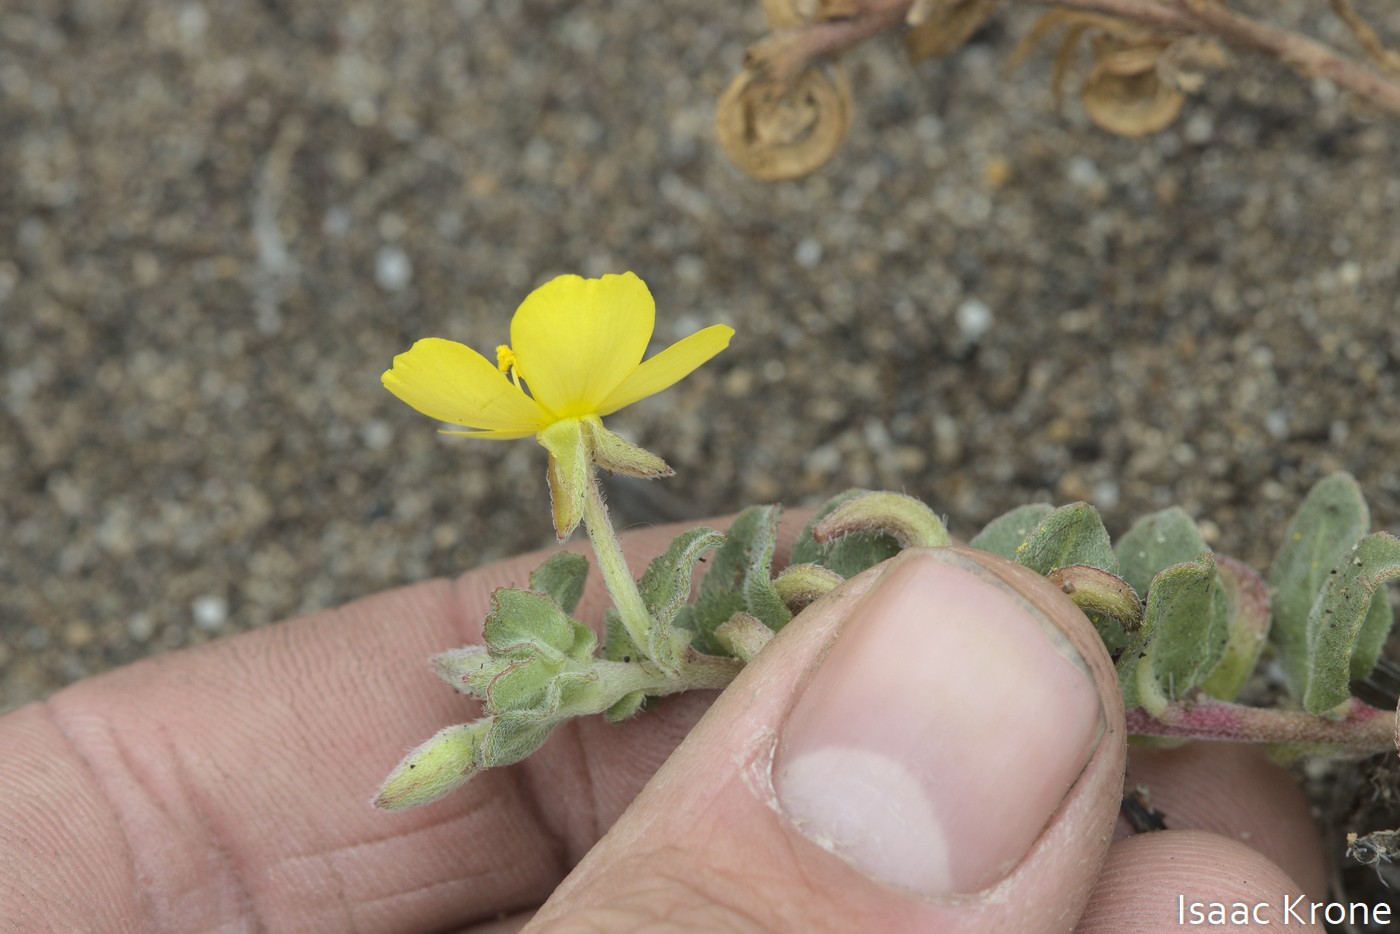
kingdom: Plantae
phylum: Tracheophyta
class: Magnoliopsida
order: Myrtales
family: Onagraceae
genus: Camissoniopsis
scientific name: Camissoniopsis cheiranthifolia
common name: Beach suncup
